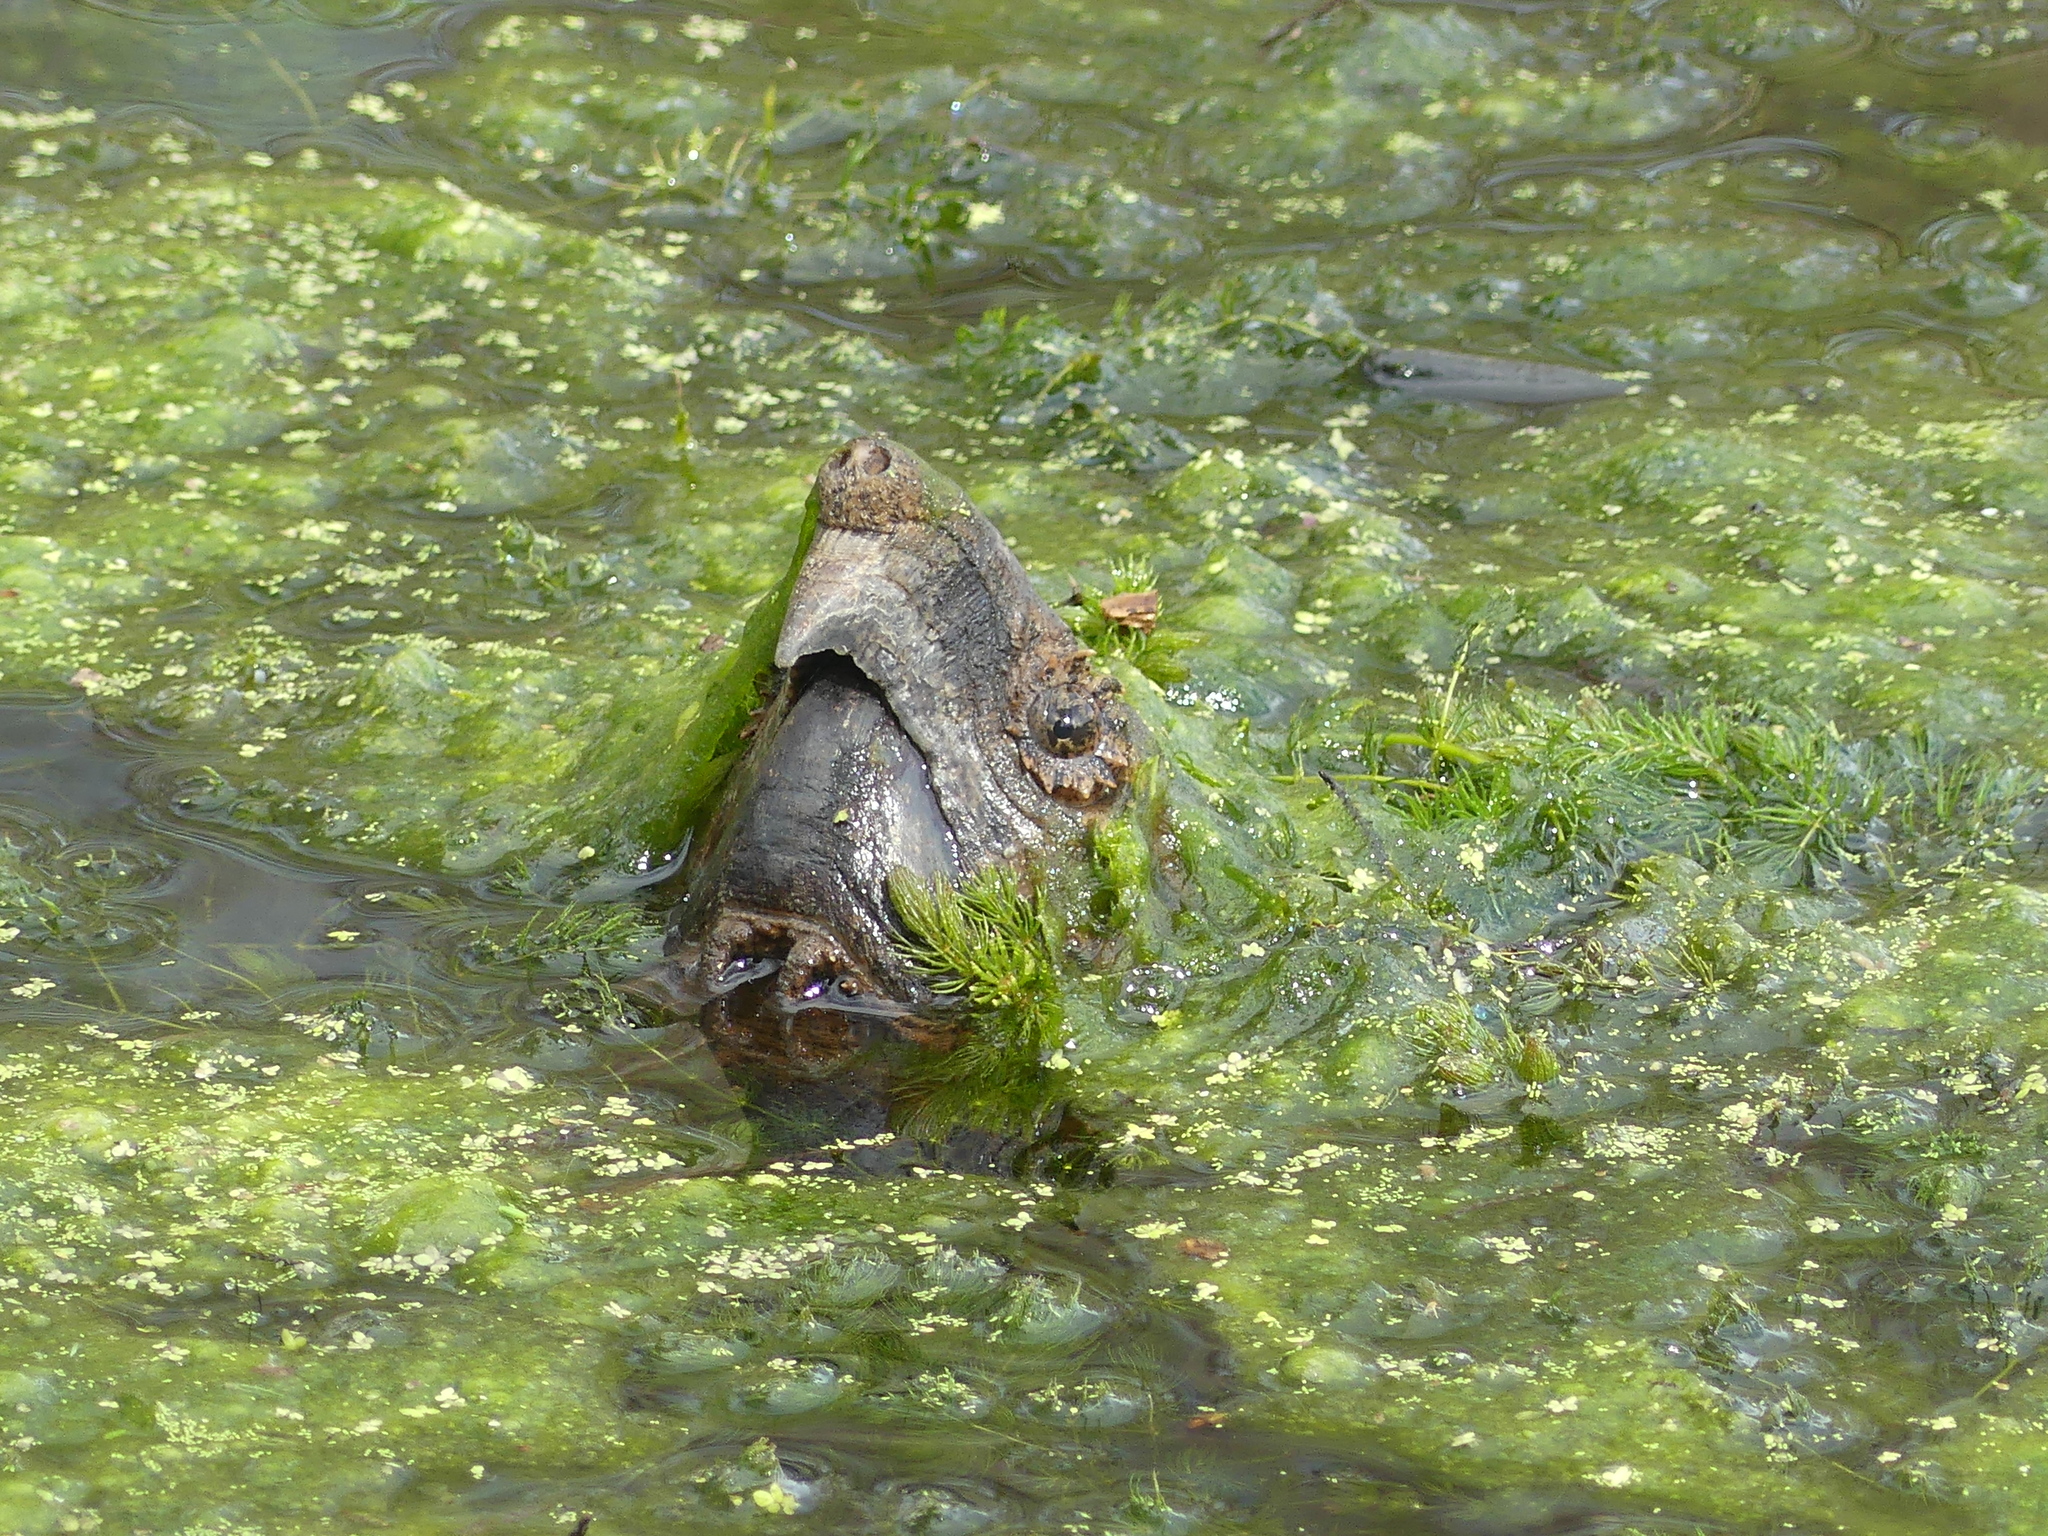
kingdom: Animalia
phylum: Chordata
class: Testudines
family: Chelydridae
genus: Macrochelys
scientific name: Macrochelys temminckii
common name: Alligator snapping turtle
